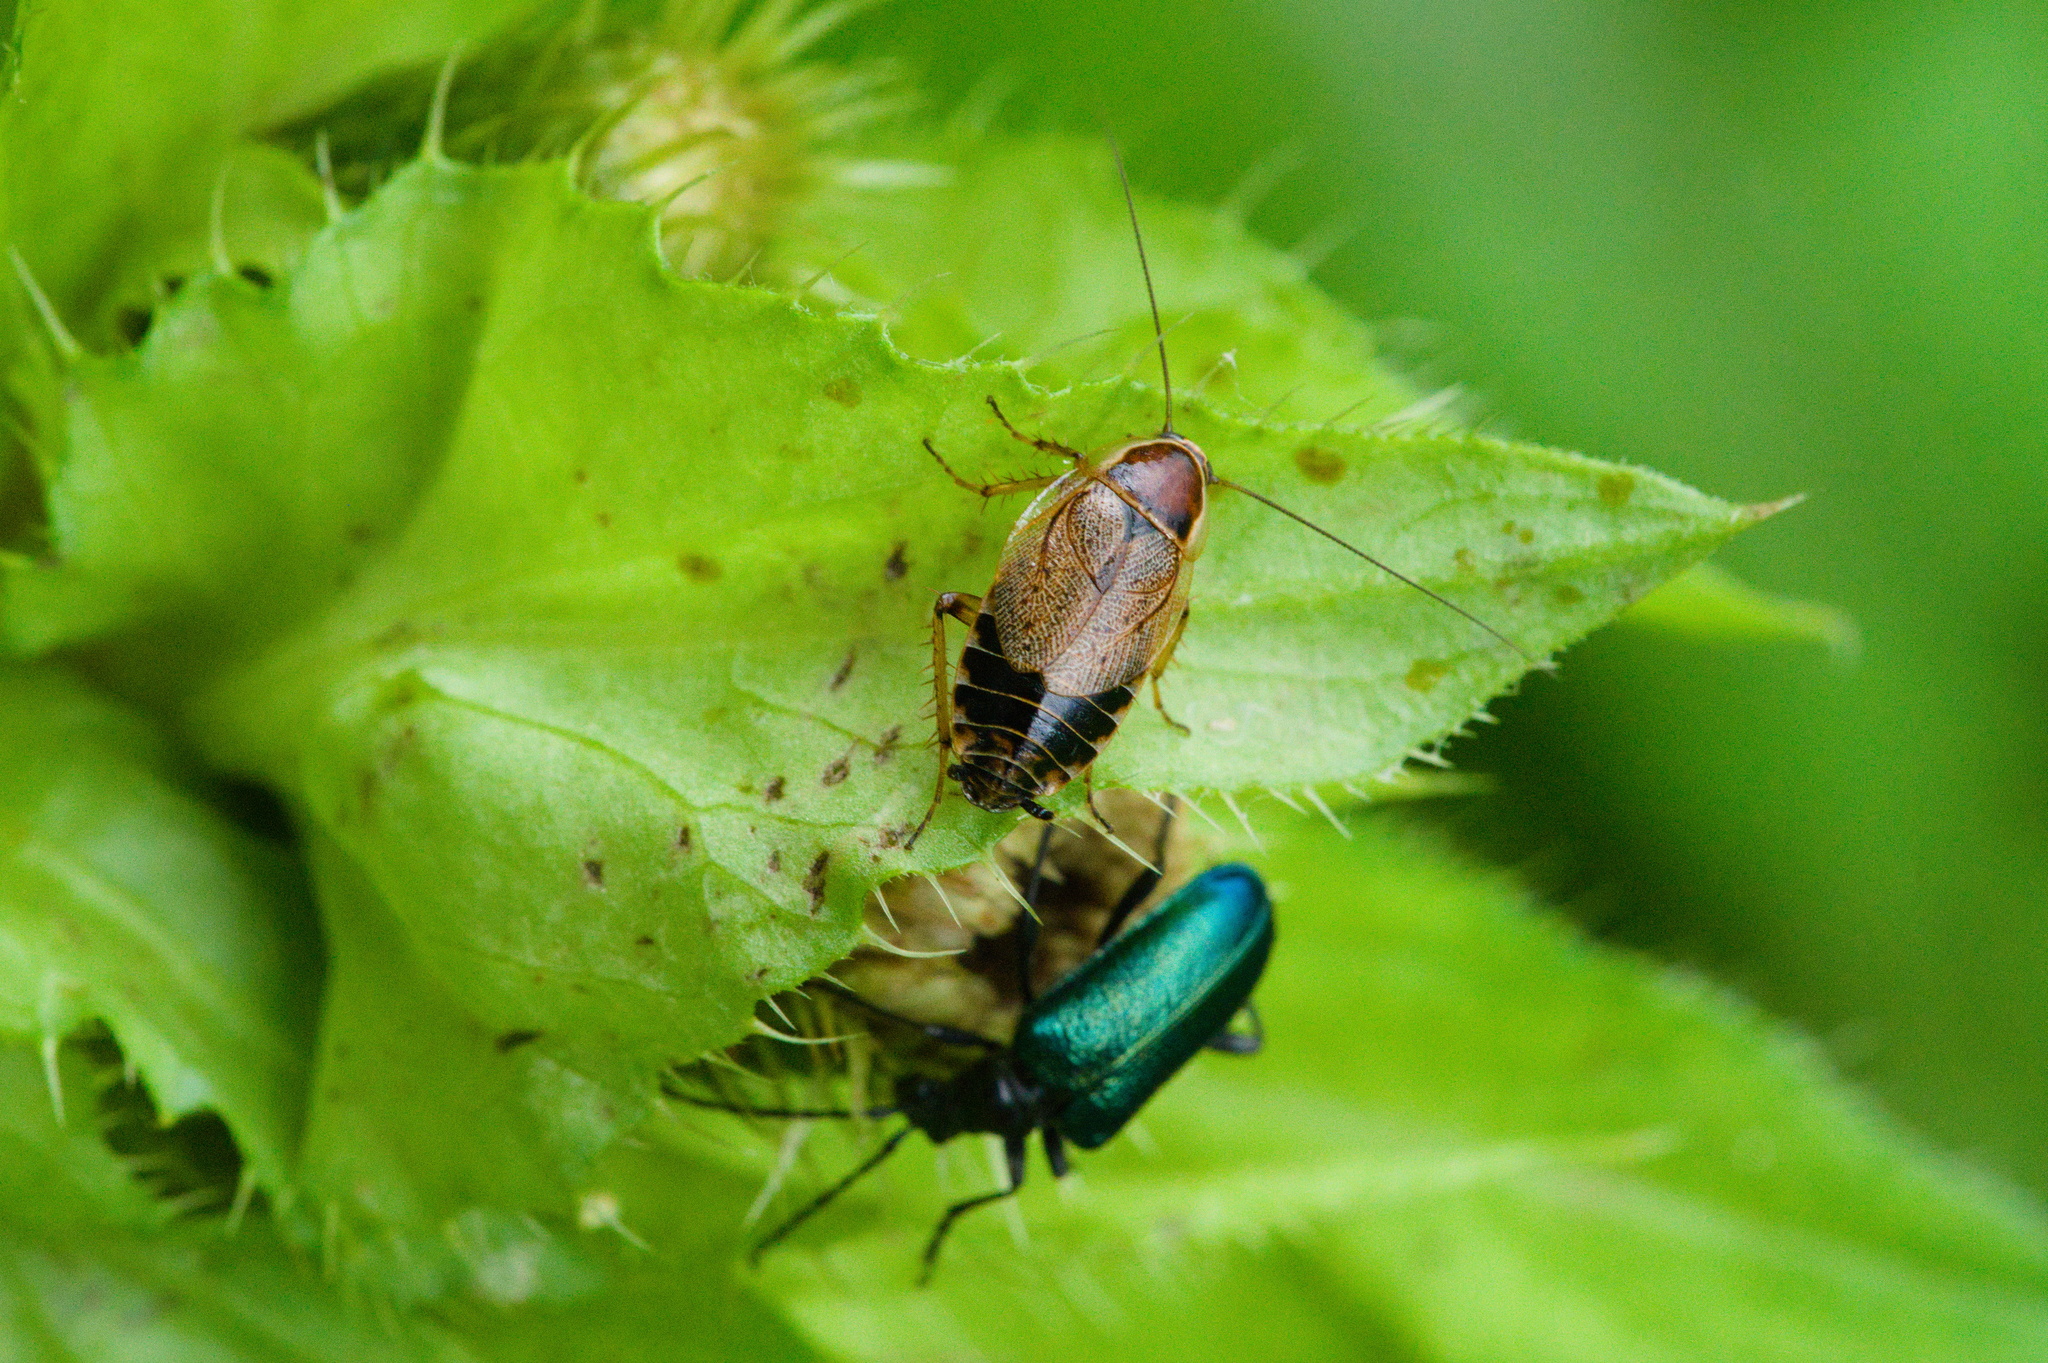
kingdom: Animalia
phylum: Arthropoda
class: Insecta
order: Blattodea
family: Ectobiidae
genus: Ectobius
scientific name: Ectobius sylvestris
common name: Forest cockroach
